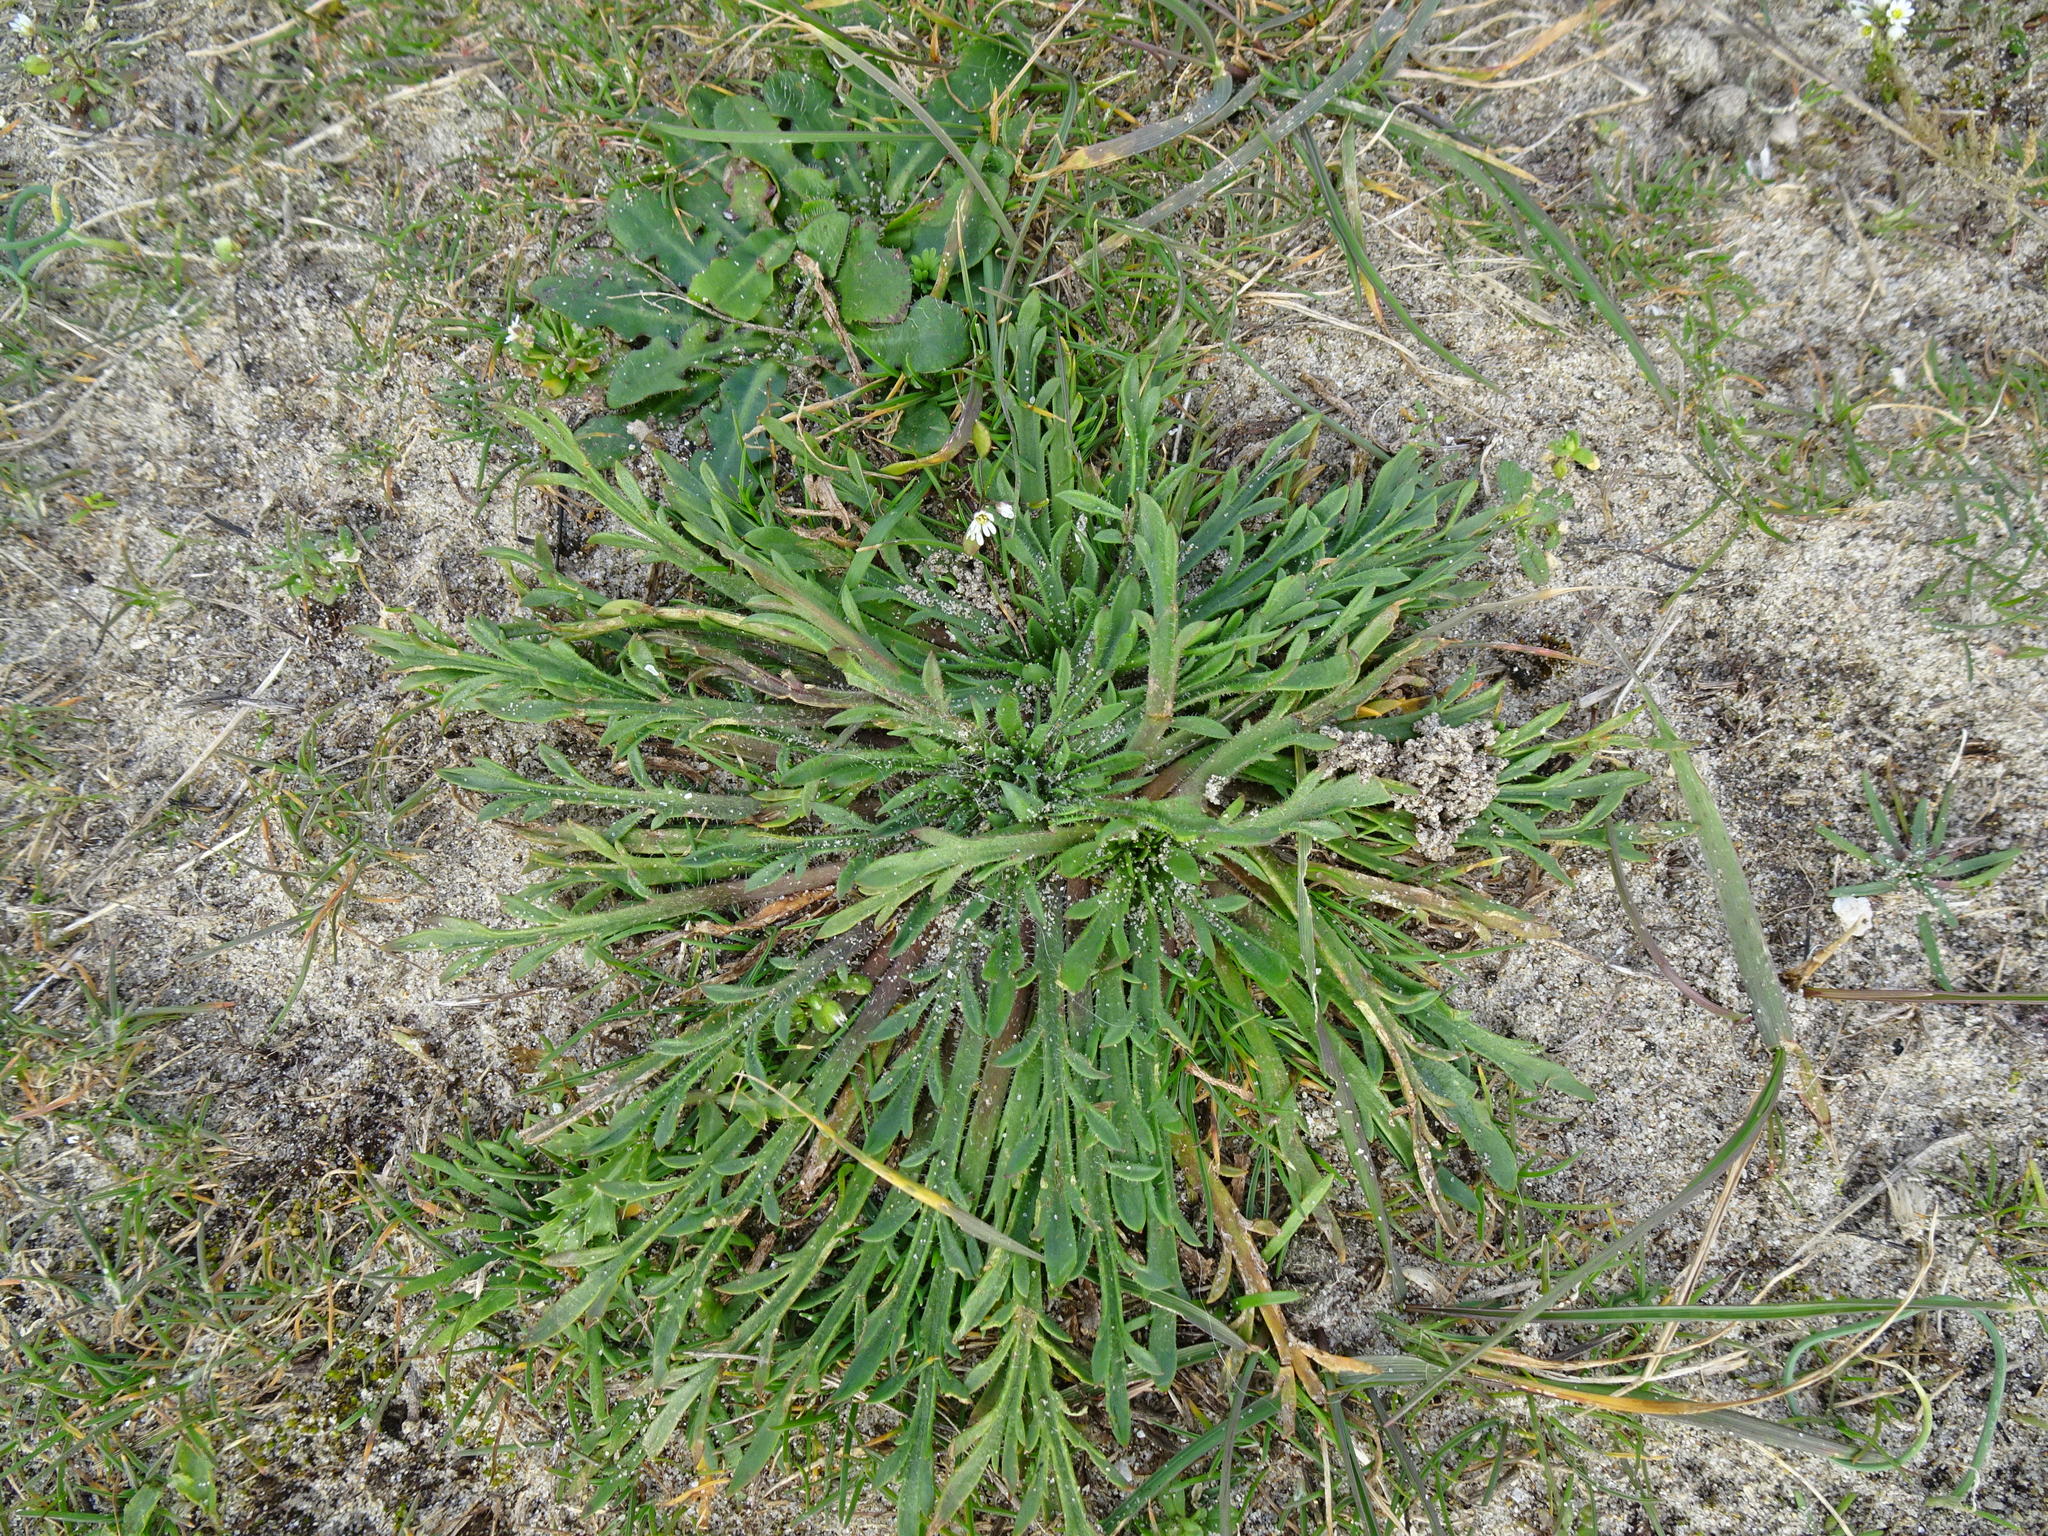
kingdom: Plantae
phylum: Tracheophyta
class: Magnoliopsida
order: Lamiales
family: Plantaginaceae
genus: Plantago
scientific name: Plantago coronopus
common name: Buck's-horn plantain
